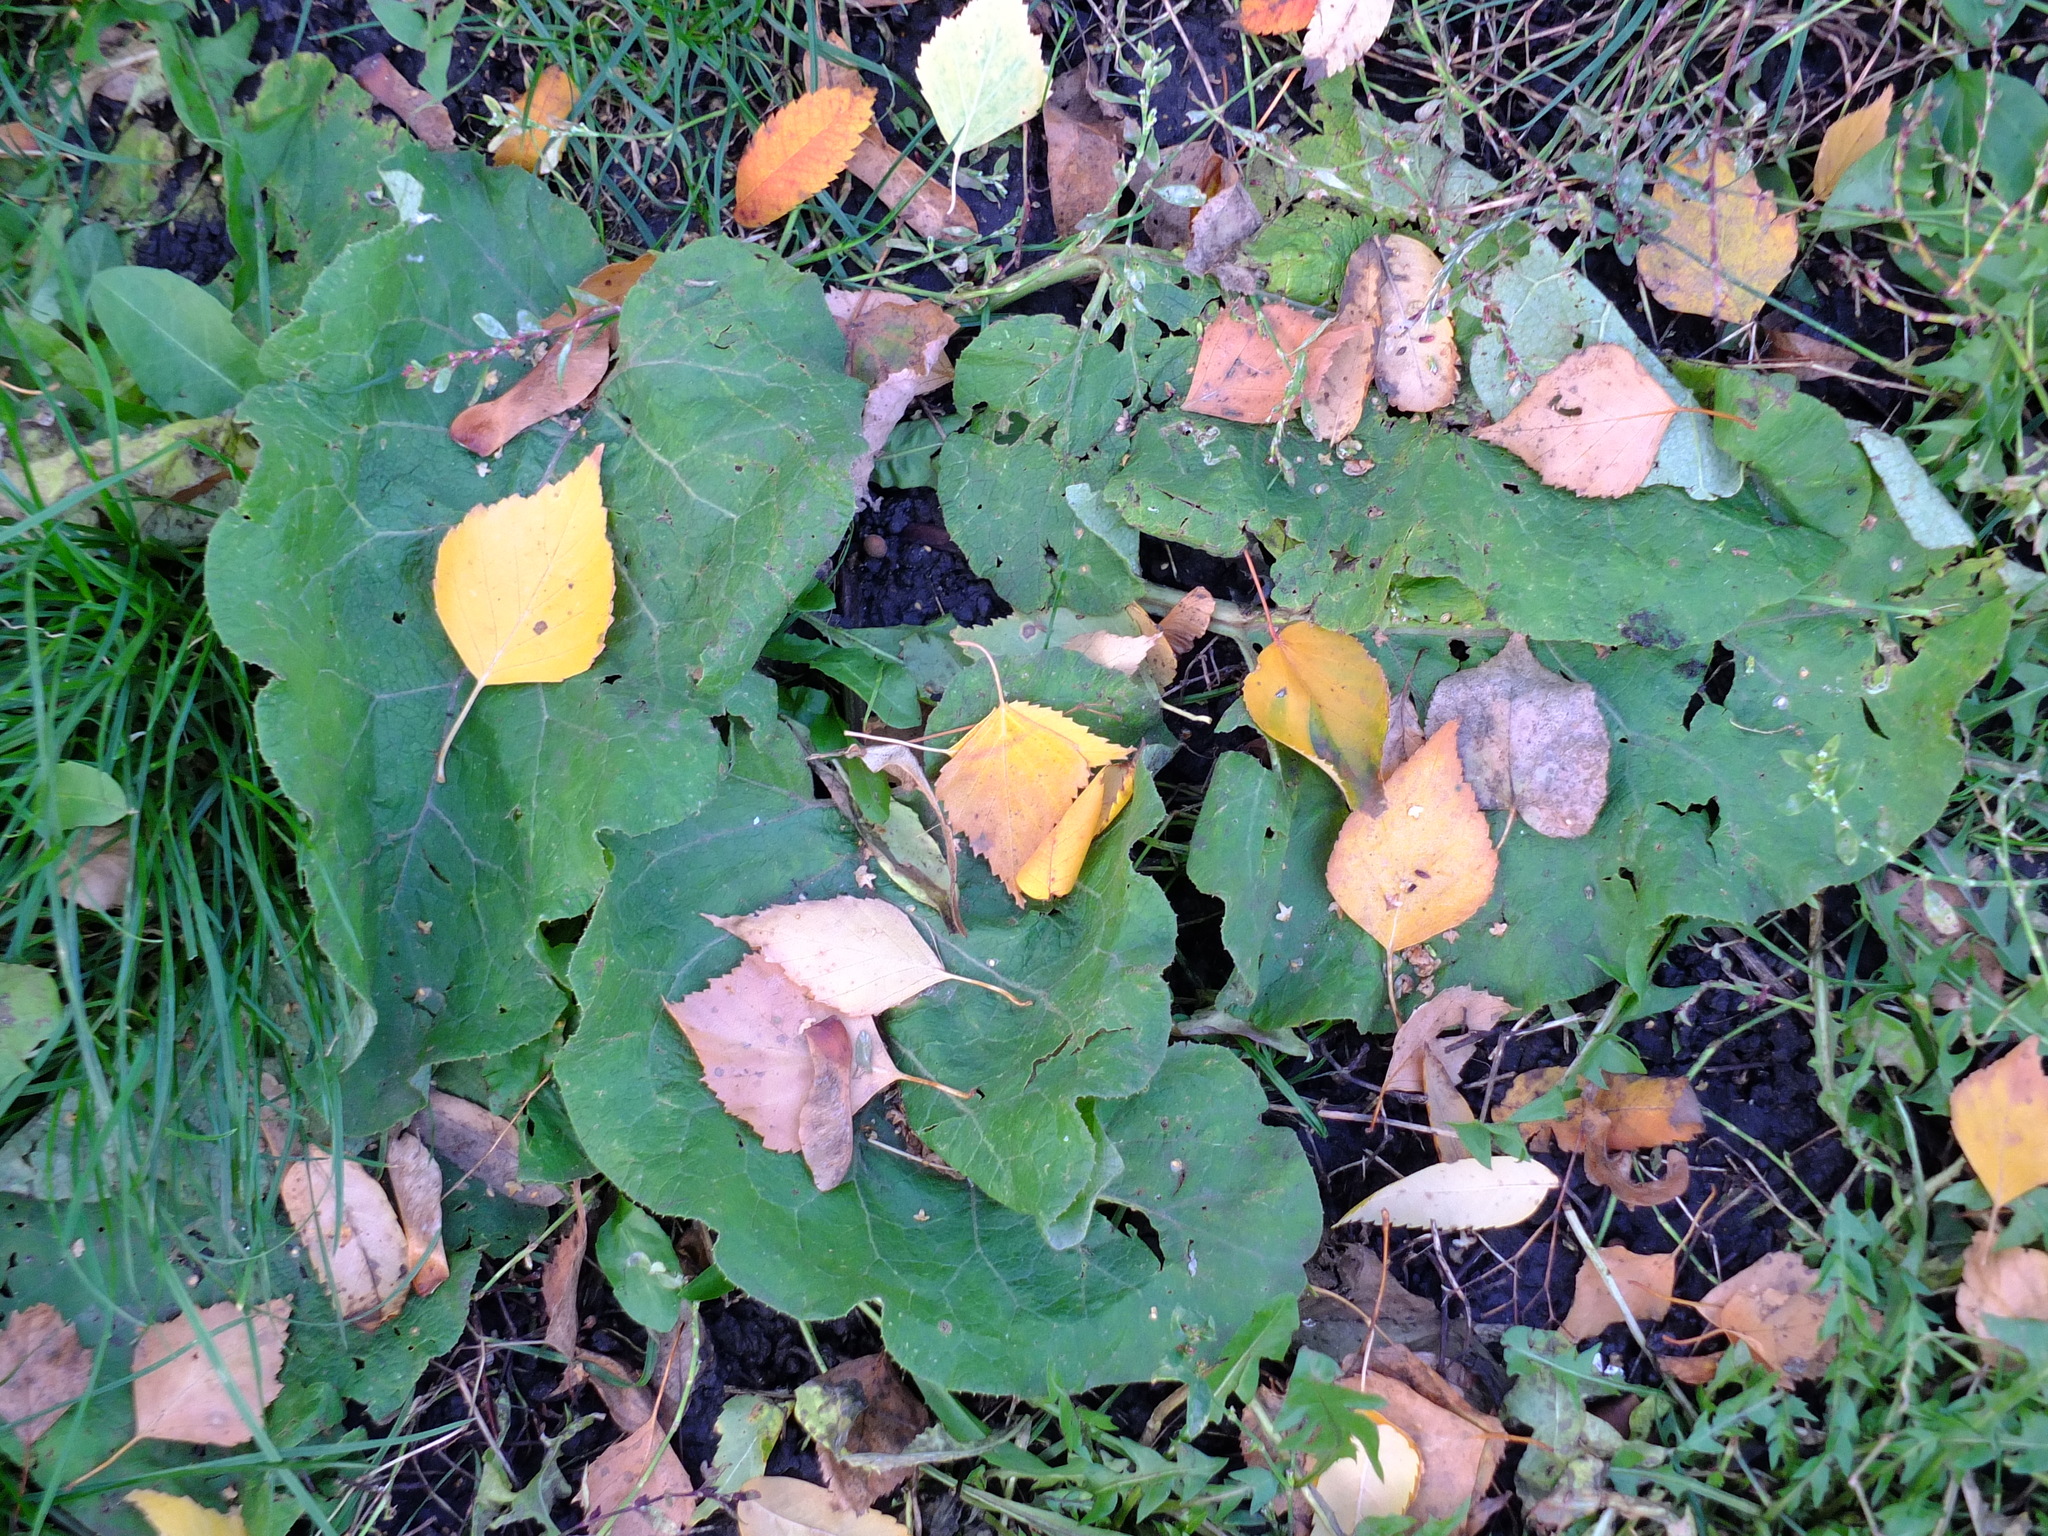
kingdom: Plantae
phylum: Tracheophyta
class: Magnoliopsida
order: Asterales
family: Asteraceae
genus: Arctium
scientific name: Arctium
